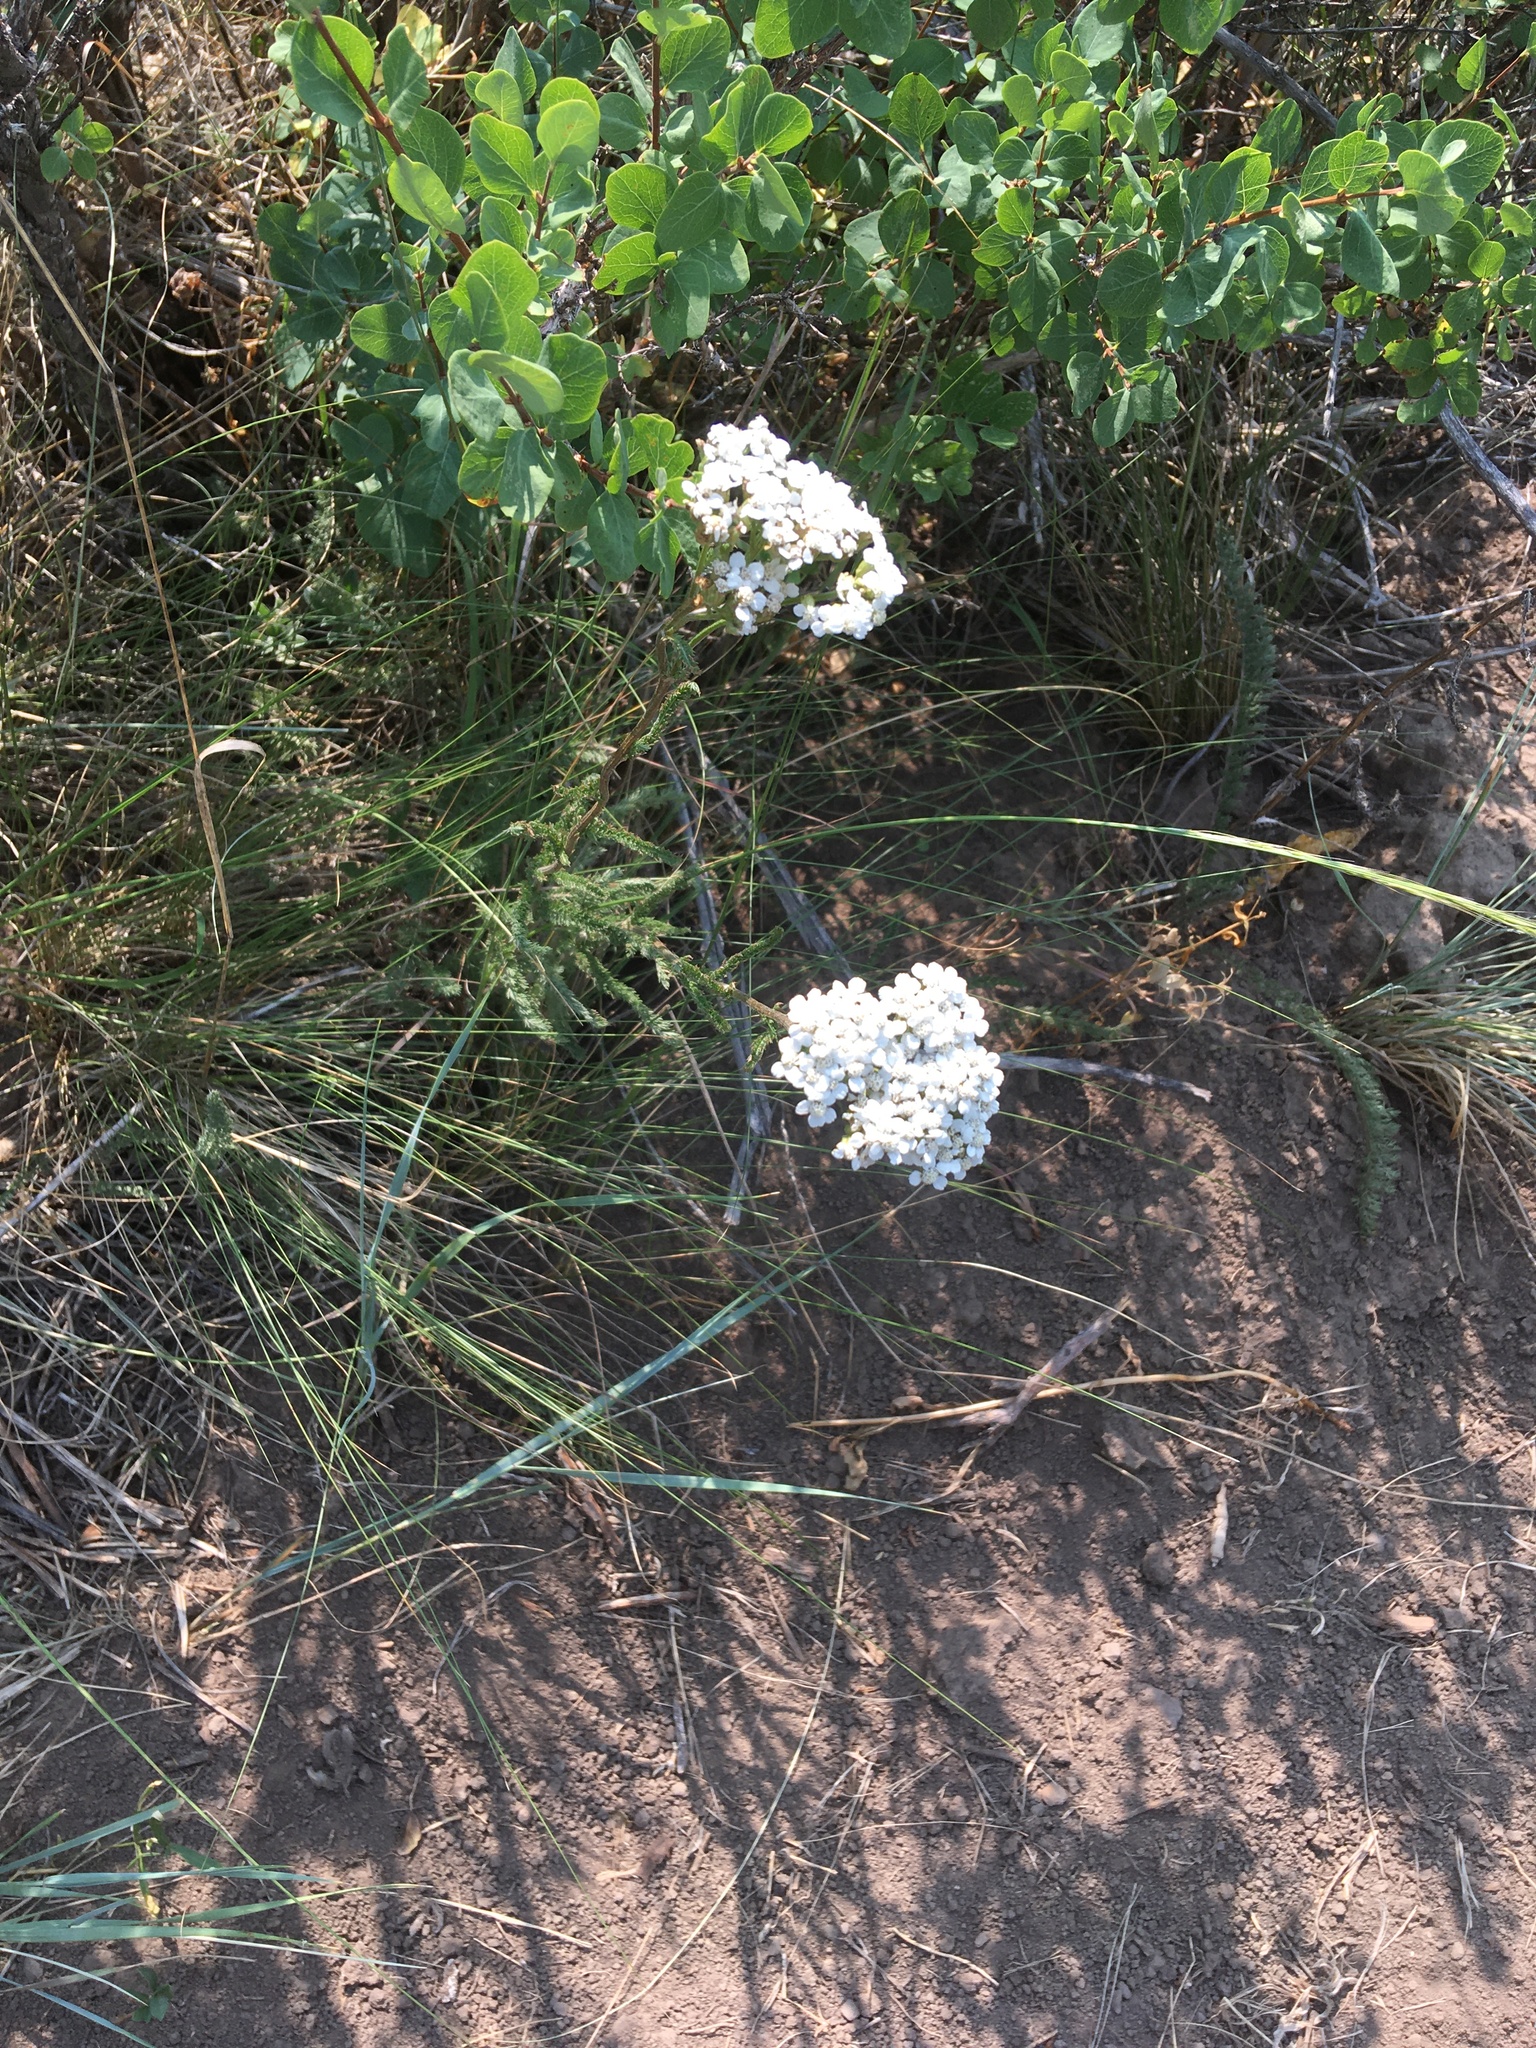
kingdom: Plantae
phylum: Tracheophyta
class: Magnoliopsida
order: Asterales
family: Asteraceae
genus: Achillea
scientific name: Achillea millefolium
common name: Yarrow
